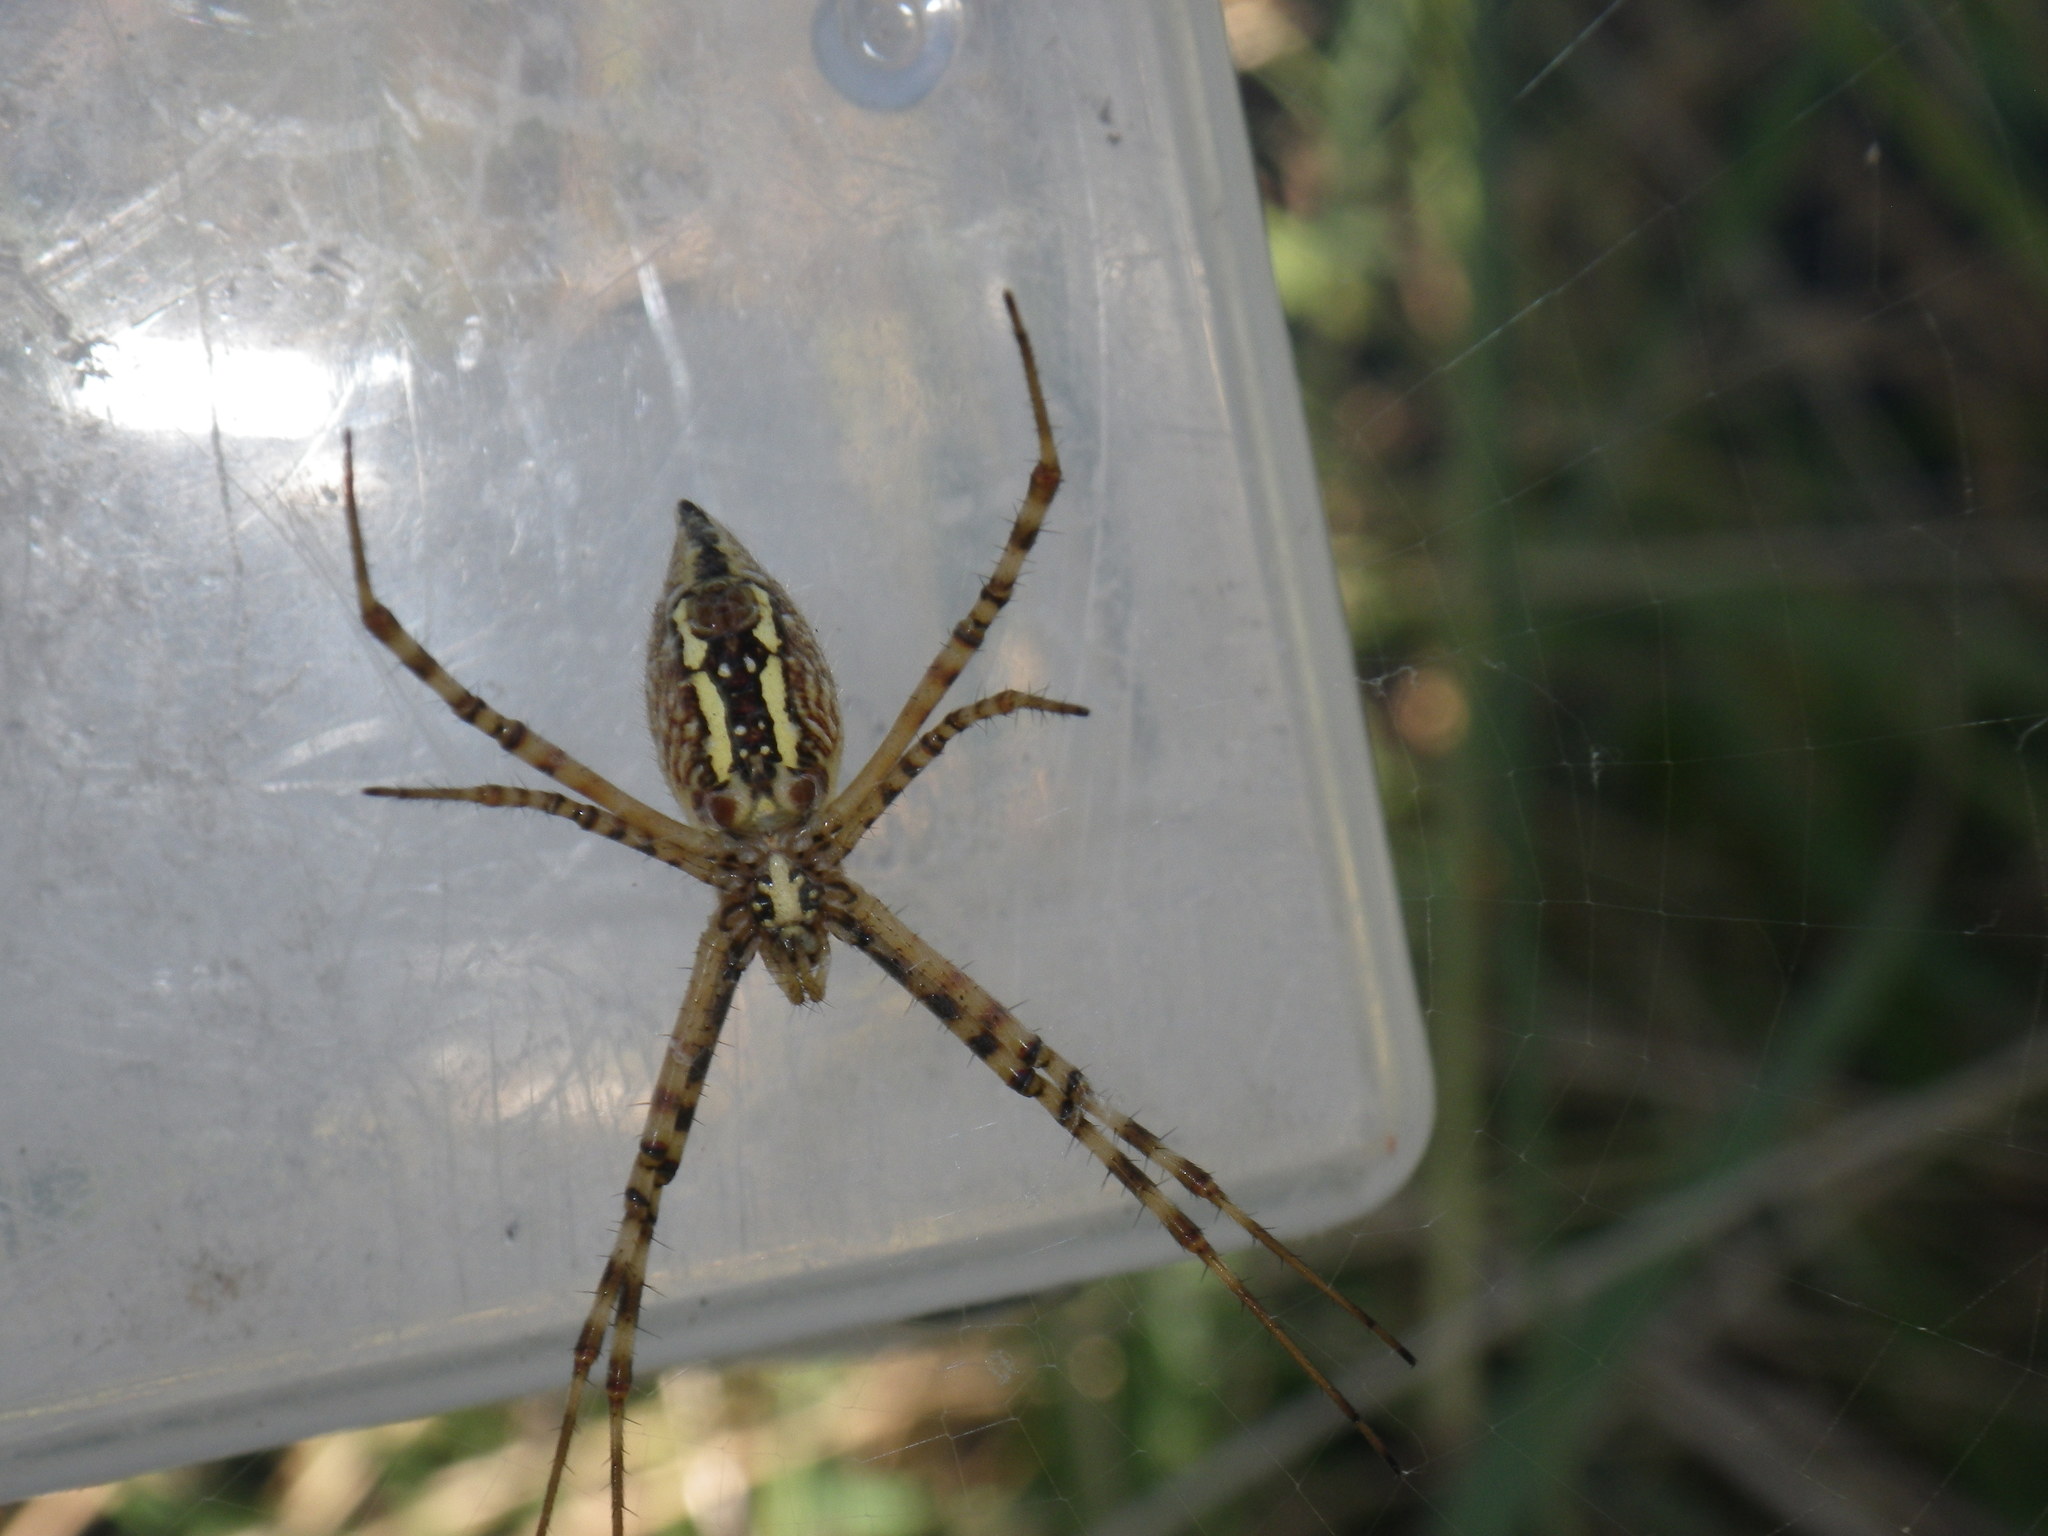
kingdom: Animalia
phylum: Arthropoda
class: Arachnida
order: Araneae
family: Araneidae
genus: Argiope
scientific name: Argiope trifasciata
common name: Banded garden spider
